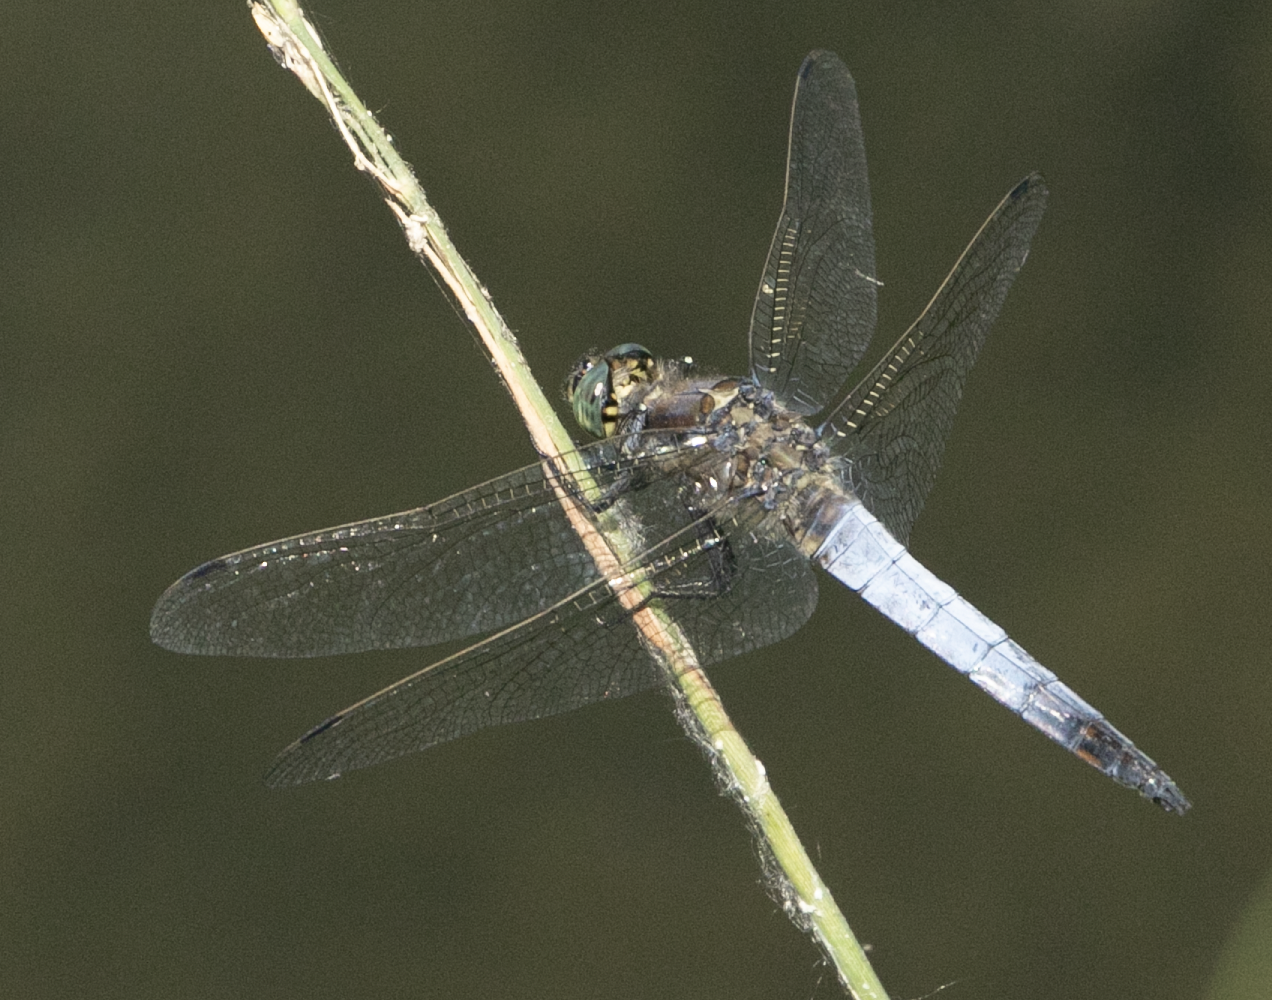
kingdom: Animalia
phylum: Arthropoda
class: Insecta
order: Odonata
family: Libellulidae
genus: Orthetrum
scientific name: Orthetrum cancellatum
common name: Black-tailed skimmer
